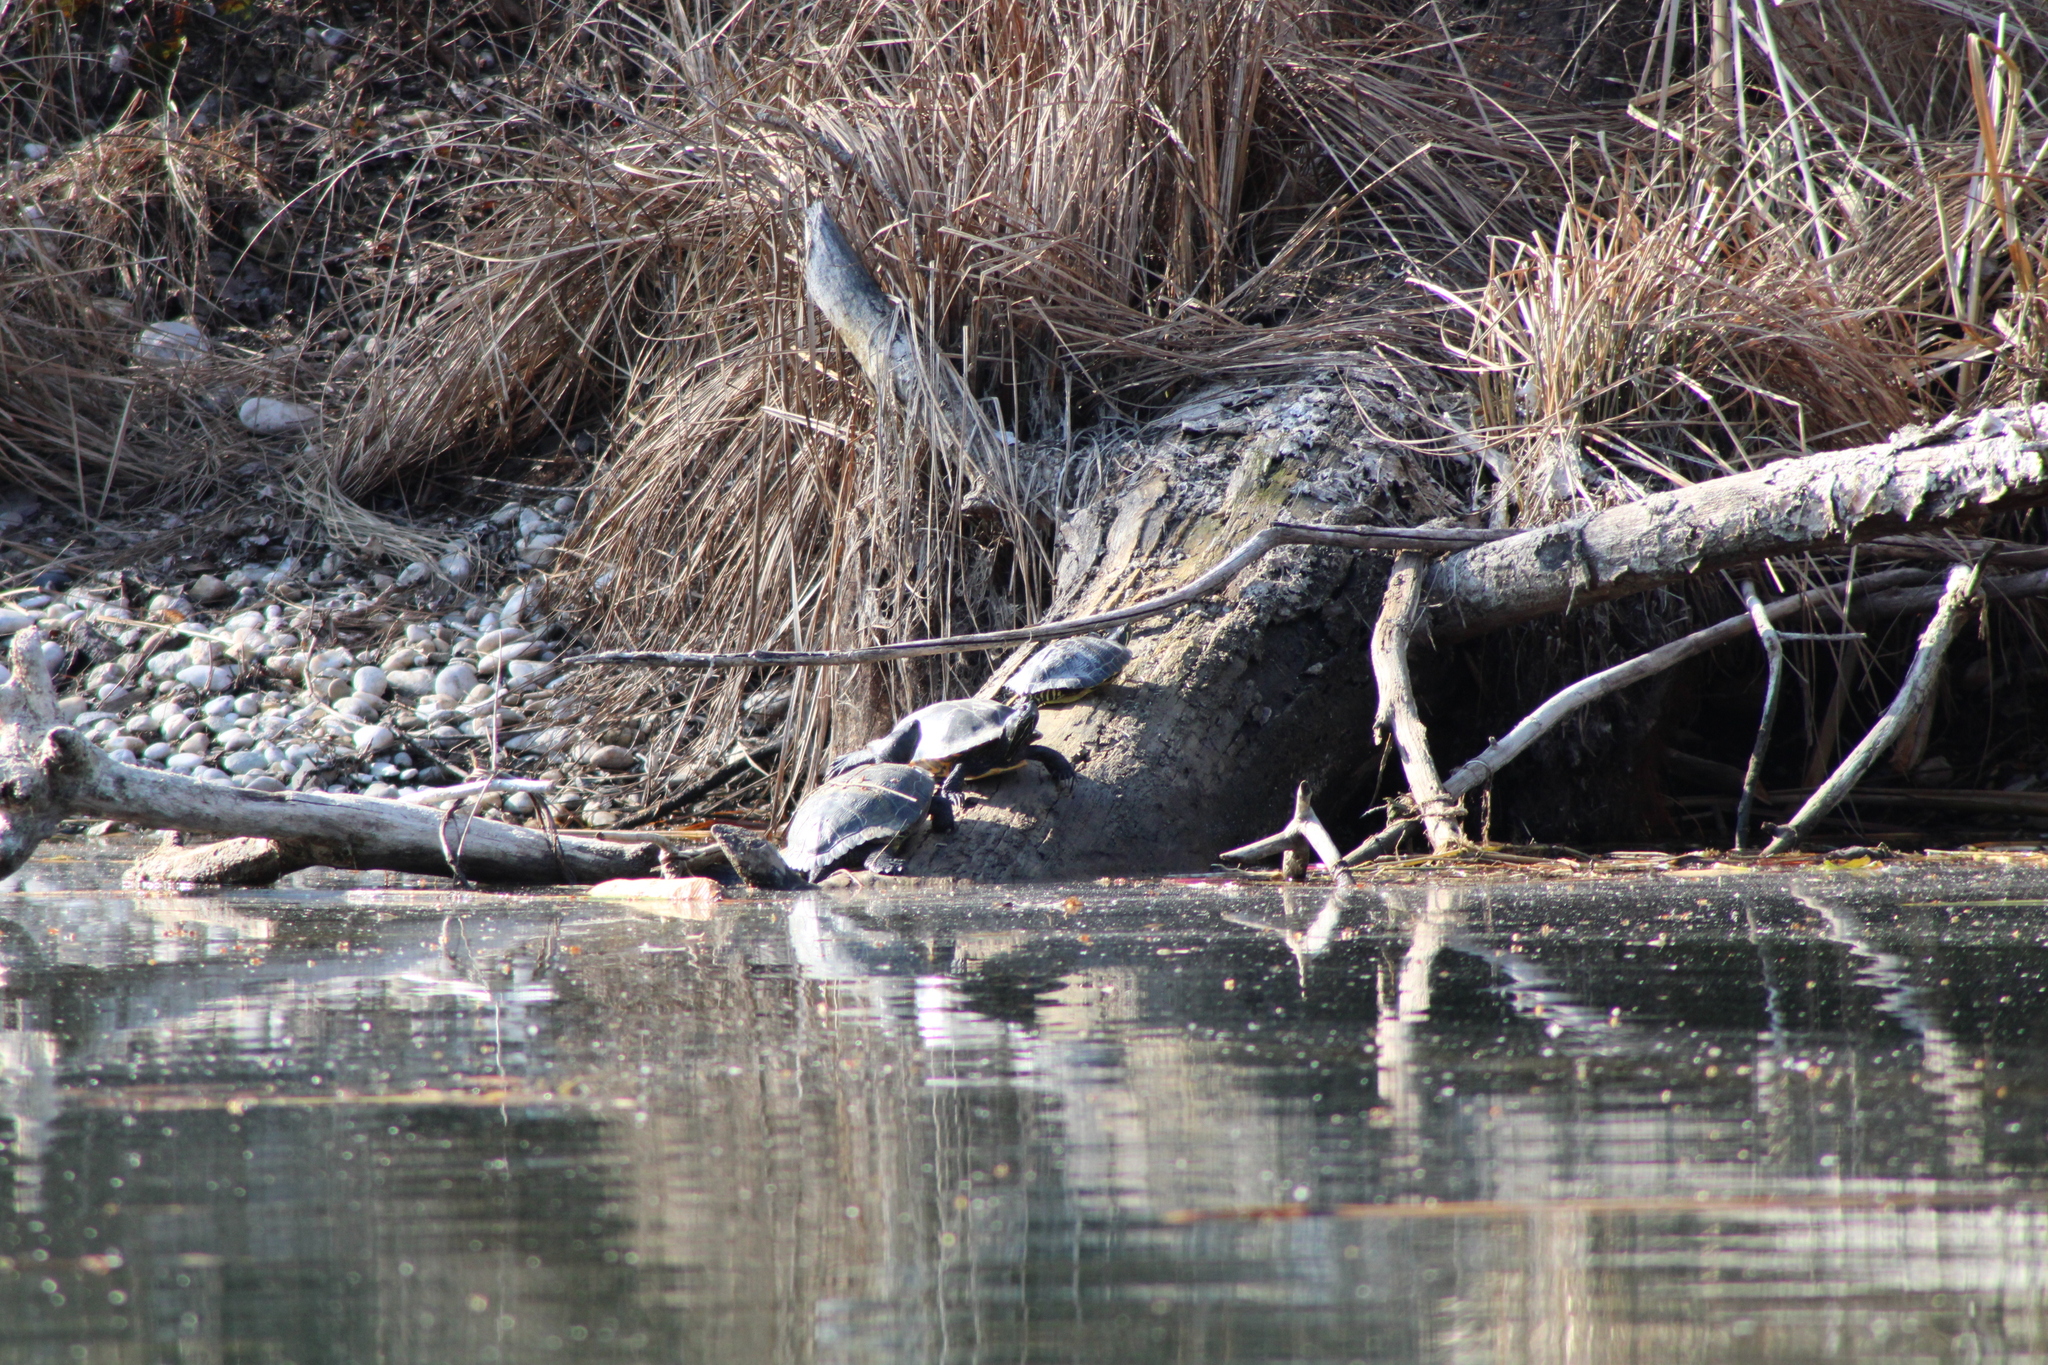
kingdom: Animalia
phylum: Chordata
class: Testudines
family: Emydidae
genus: Trachemys
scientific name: Trachemys scripta
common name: Slider
